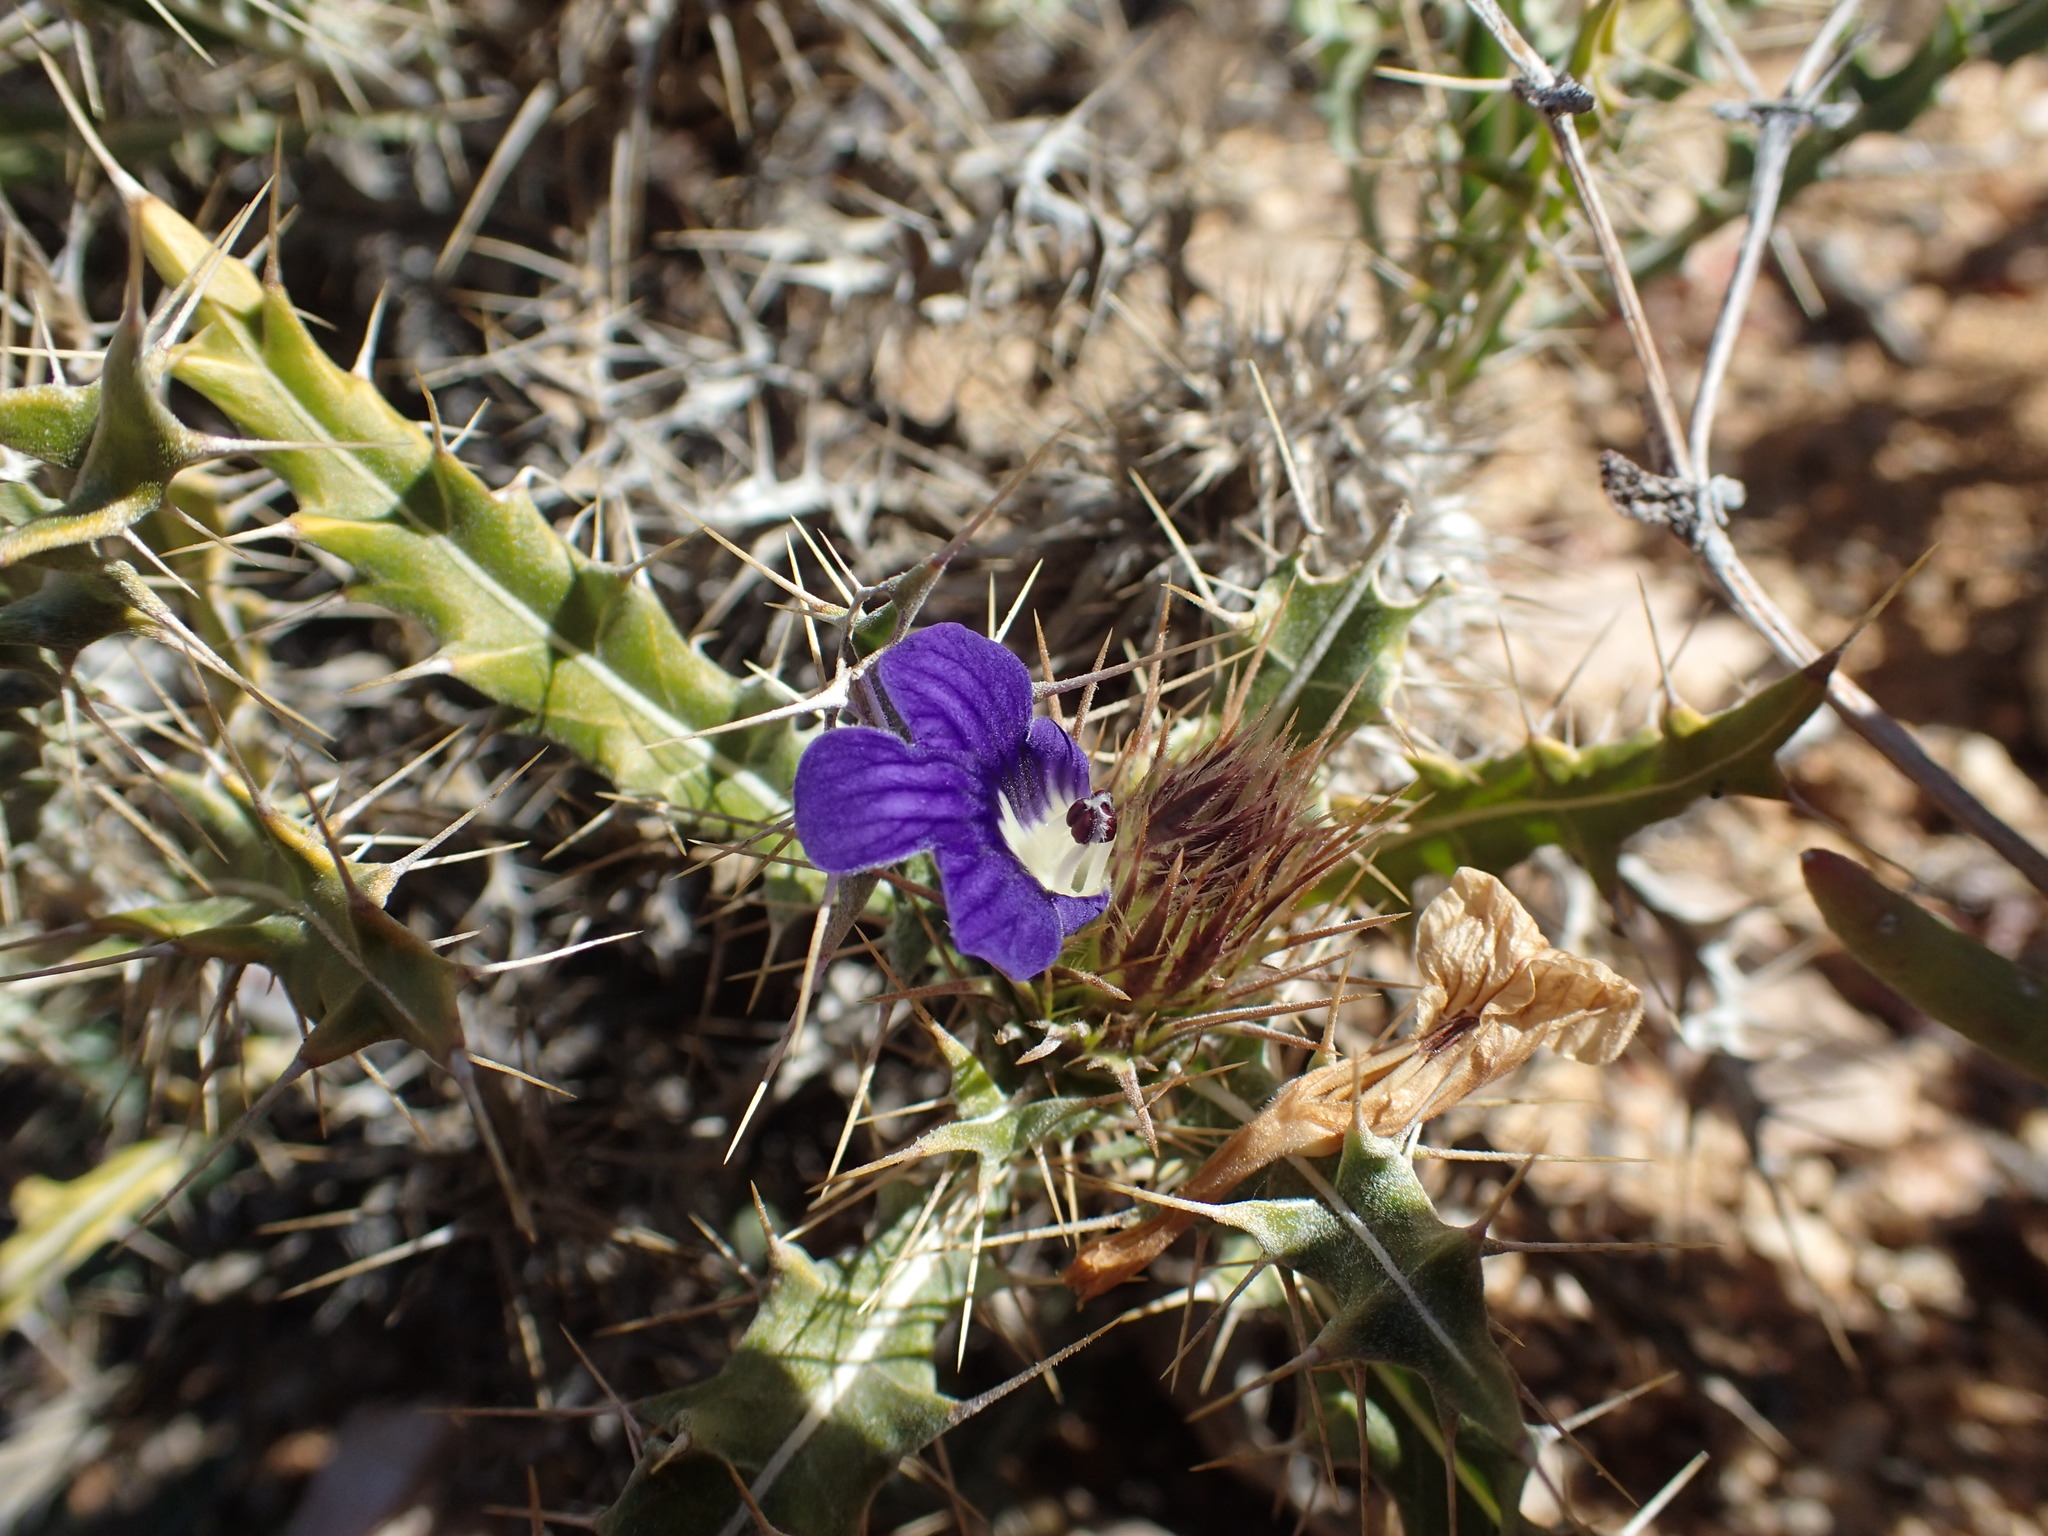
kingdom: Plantae
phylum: Tracheophyta
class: Magnoliopsida
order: Lamiales
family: Acanthaceae
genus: Acanthopsis
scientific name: Acanthopsis horrida
